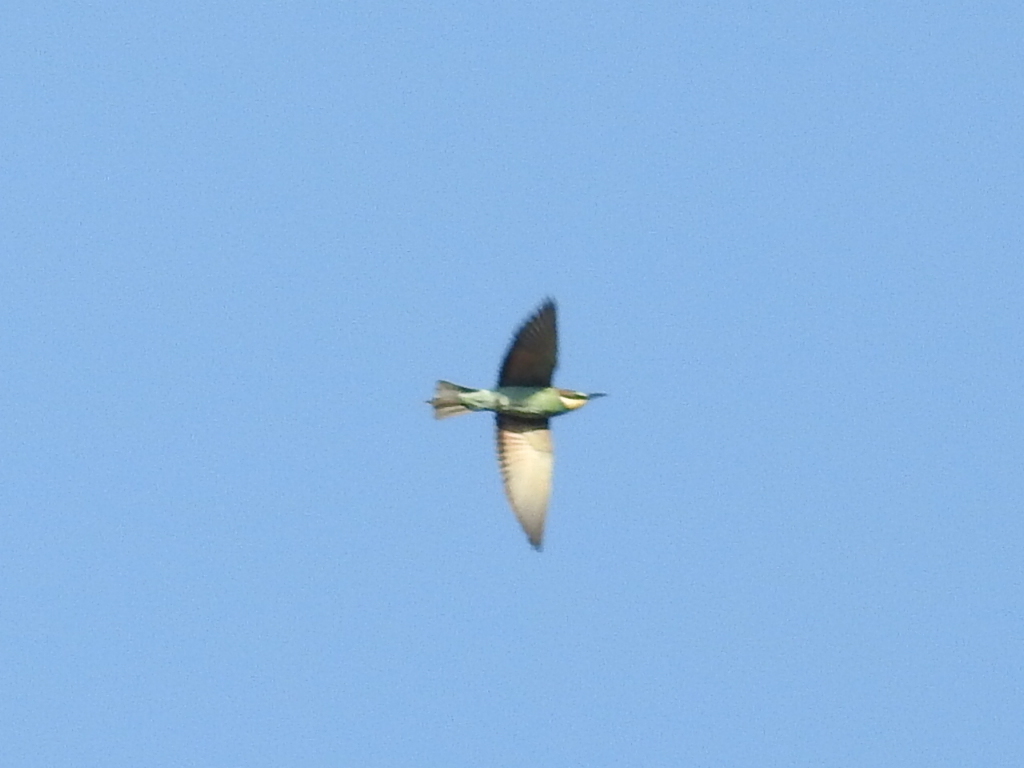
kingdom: Animalia
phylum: Chordata
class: Aves
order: Coraciiformes
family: Meropidae
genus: Merops
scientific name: Merops apiaster
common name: European bee-eater
